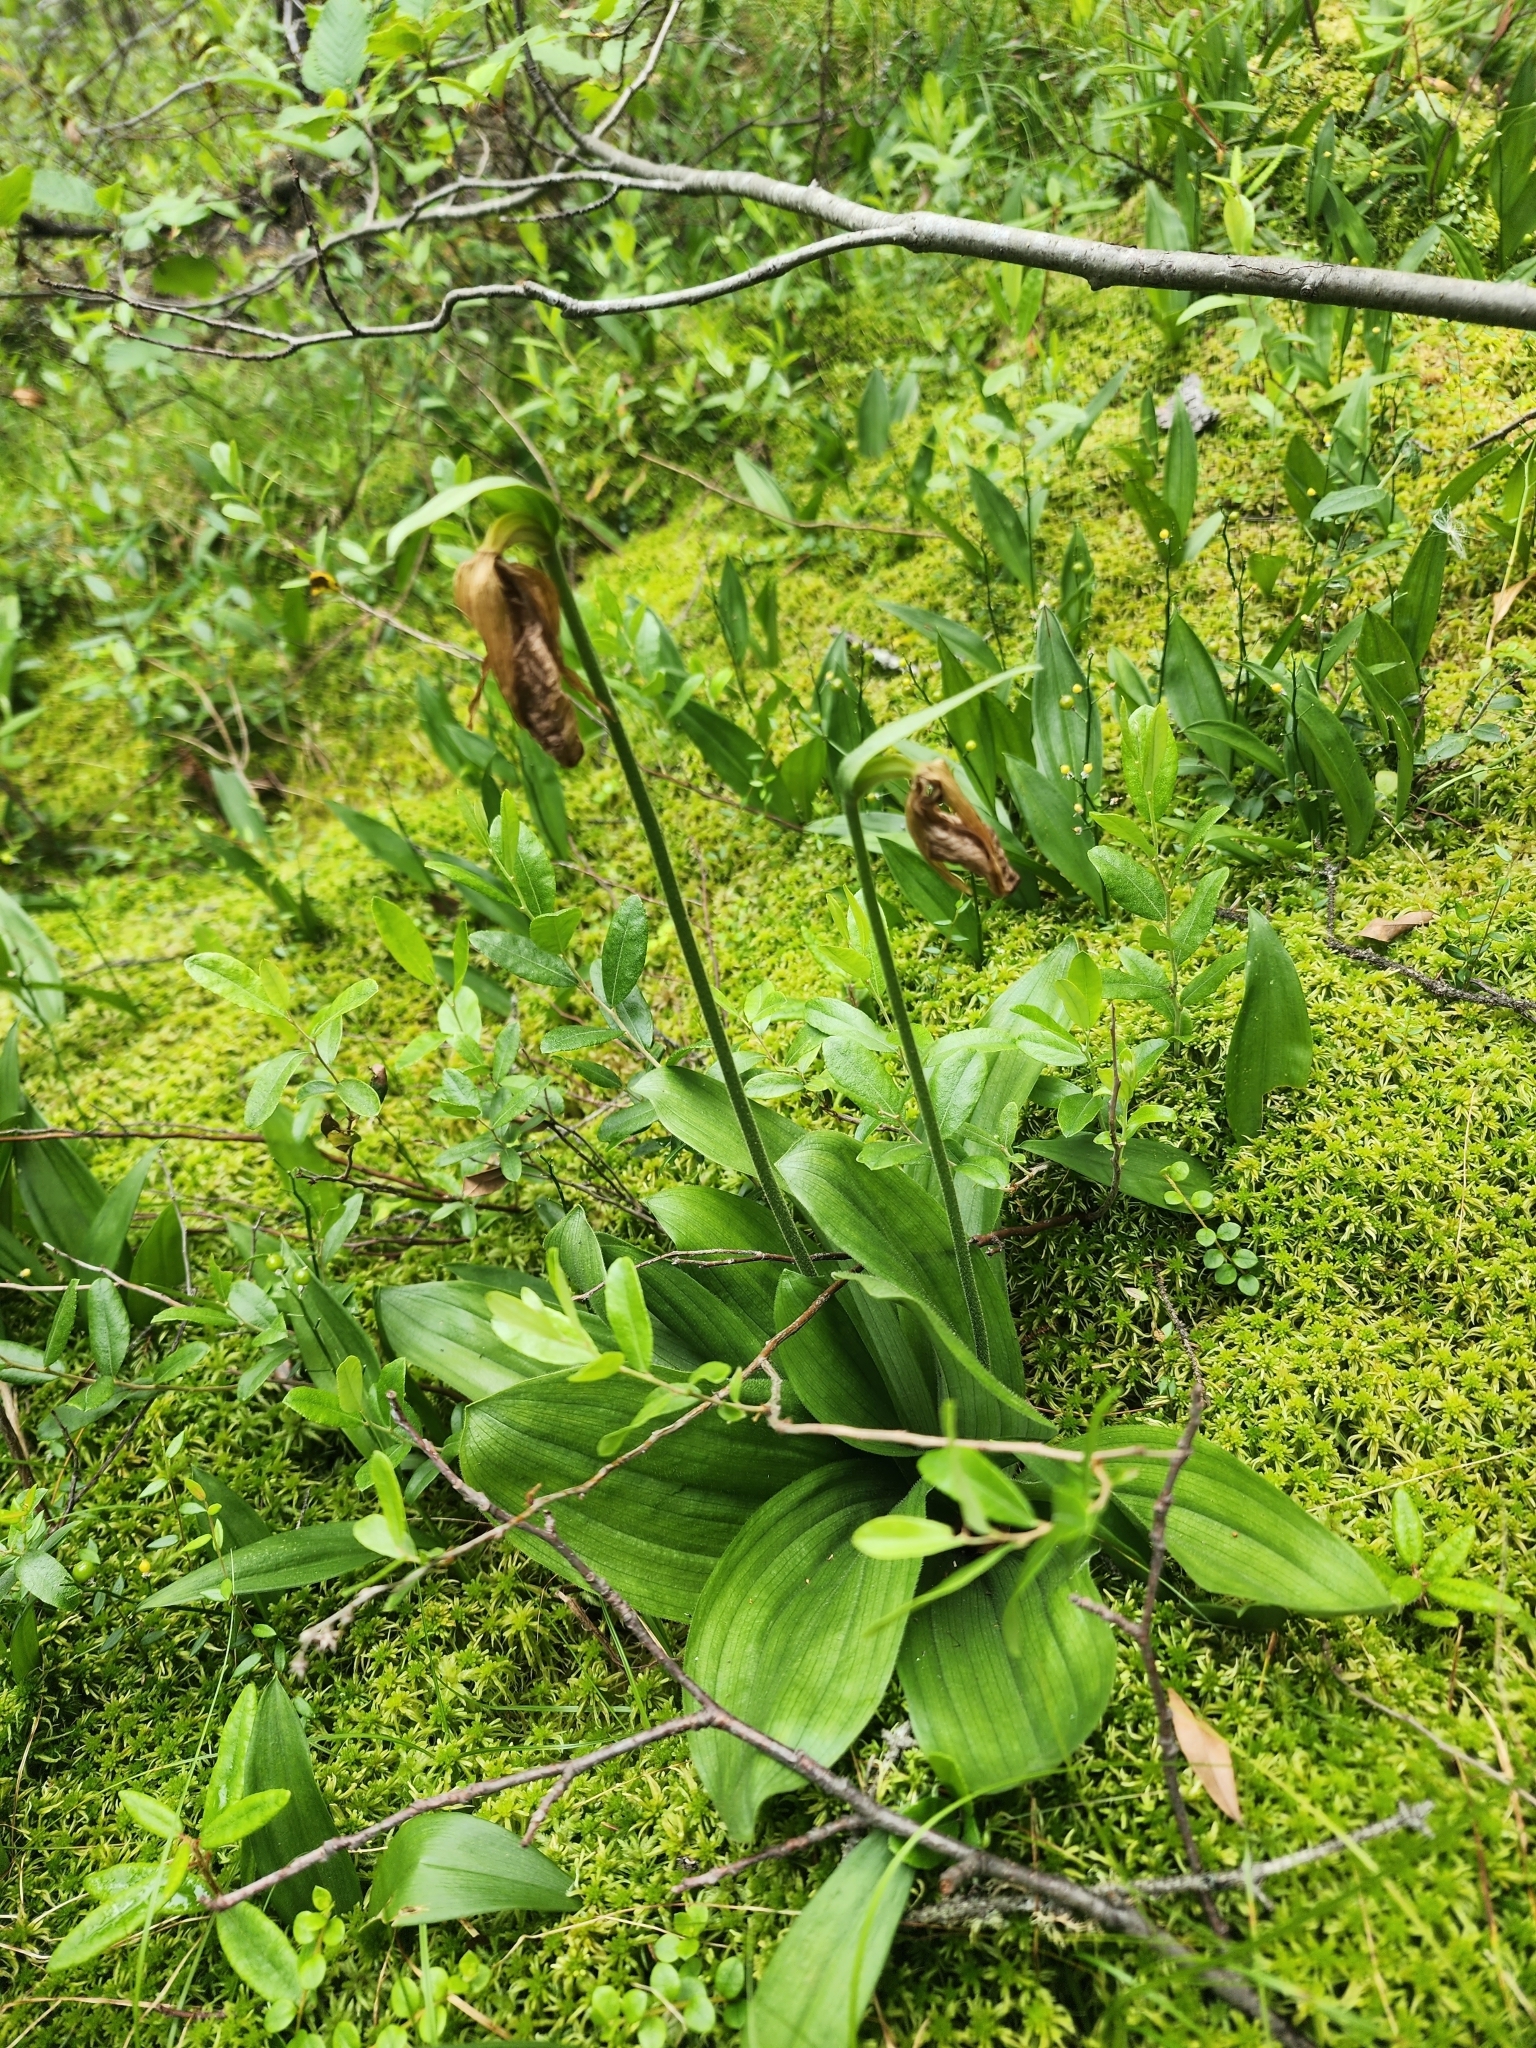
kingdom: Plantae
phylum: Tracheophyta
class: Liliopsida
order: Asparagales
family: Orchidaceae
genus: Cypripedium
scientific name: Cypripedium acaule
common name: Pink lady's-slipper
